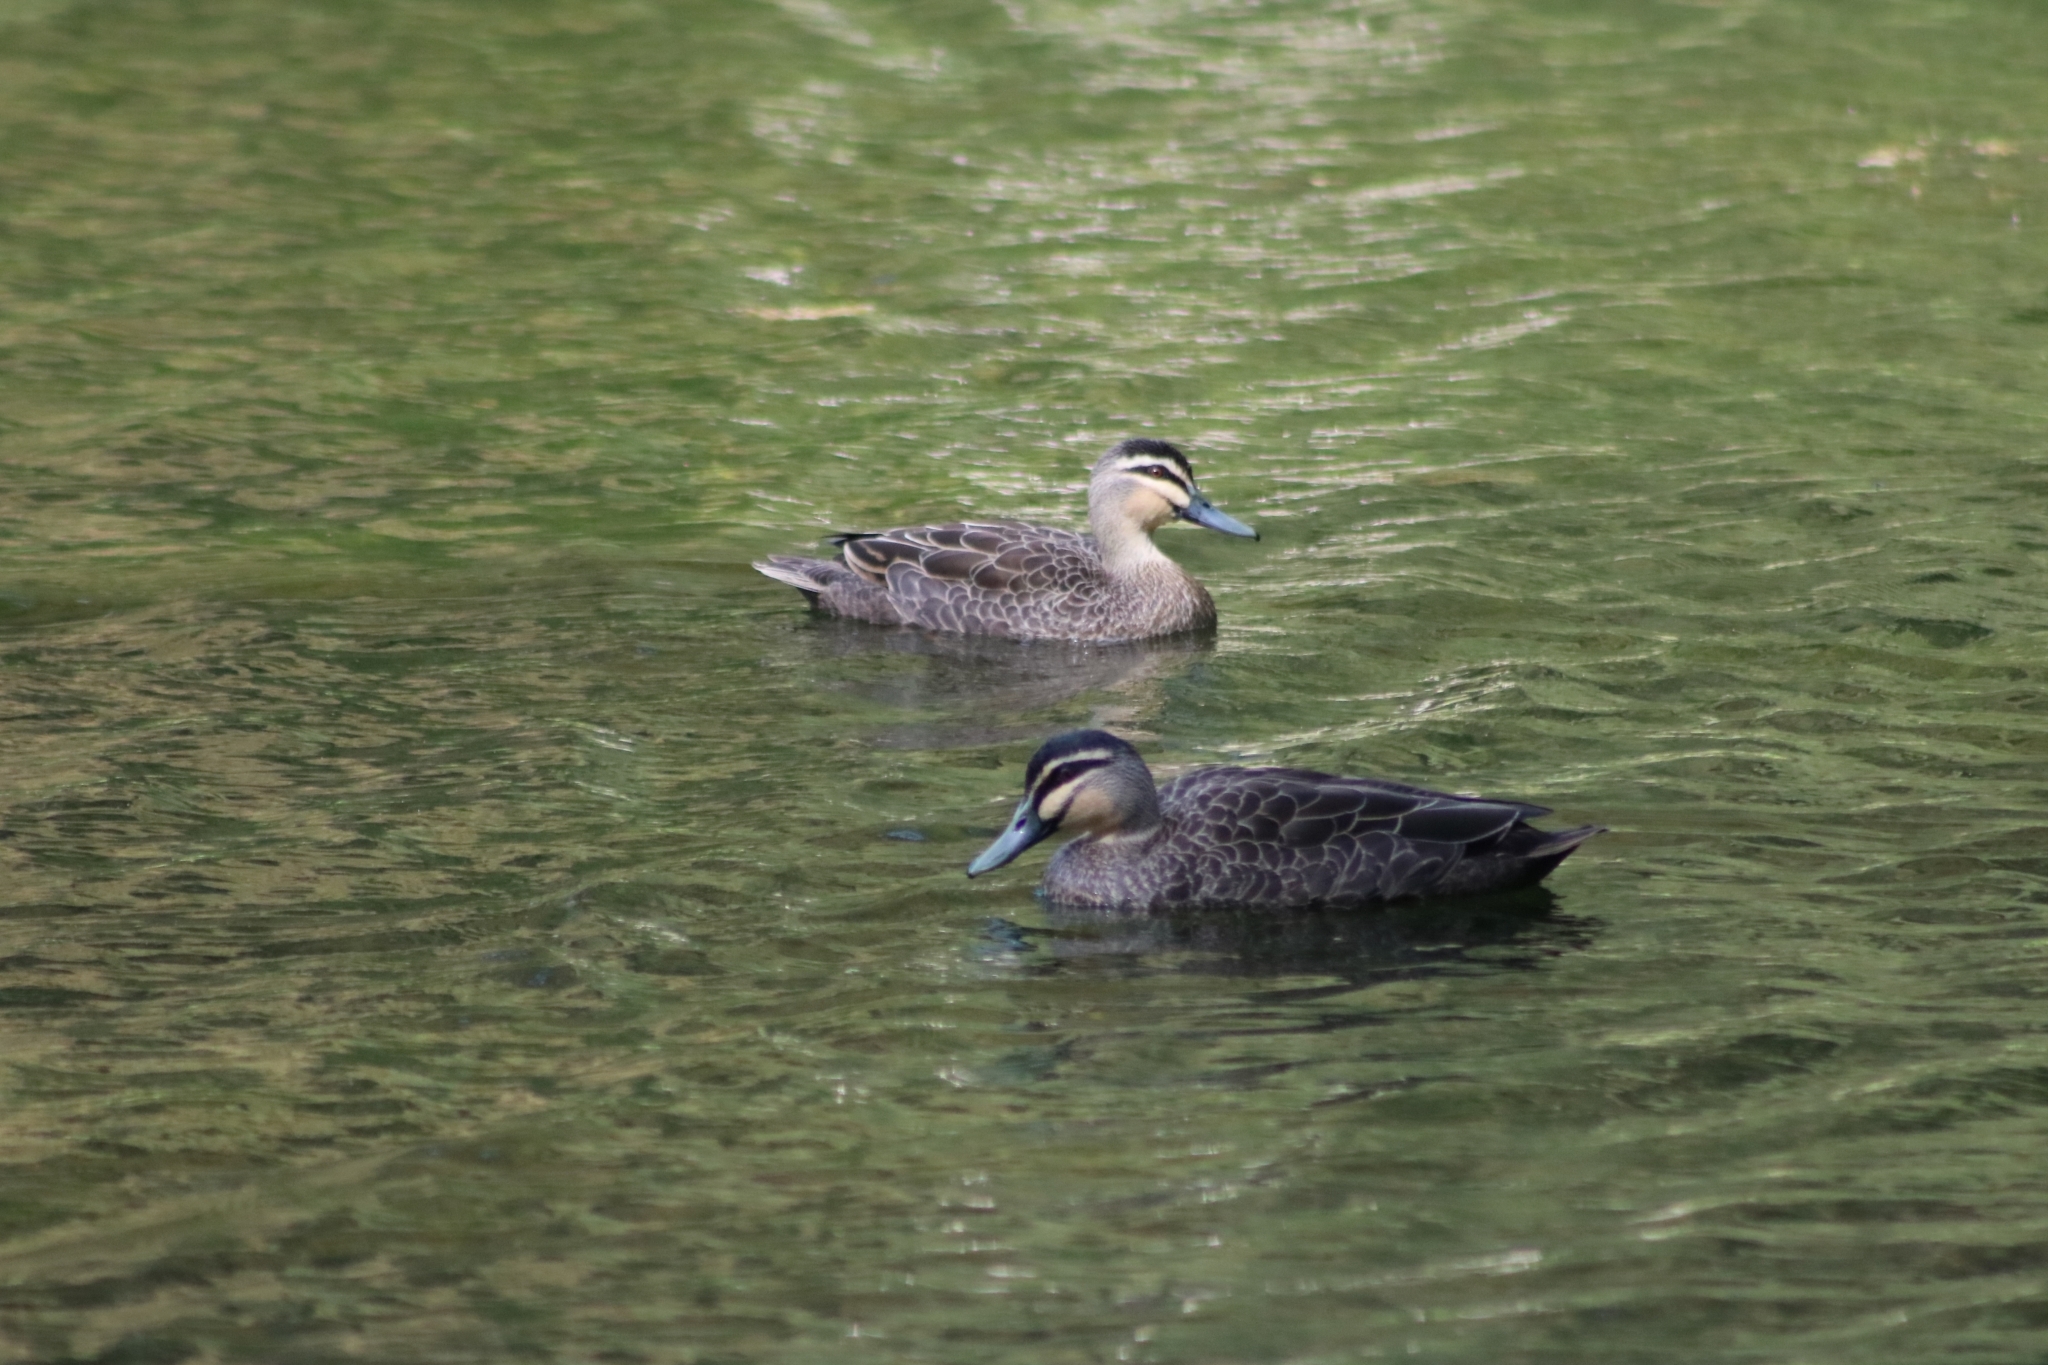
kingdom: Animalia
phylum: Chordata
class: Aves
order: Anseriformes
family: Anatidae
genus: Anas
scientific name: Anas superciliosa
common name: Pacific black duck
